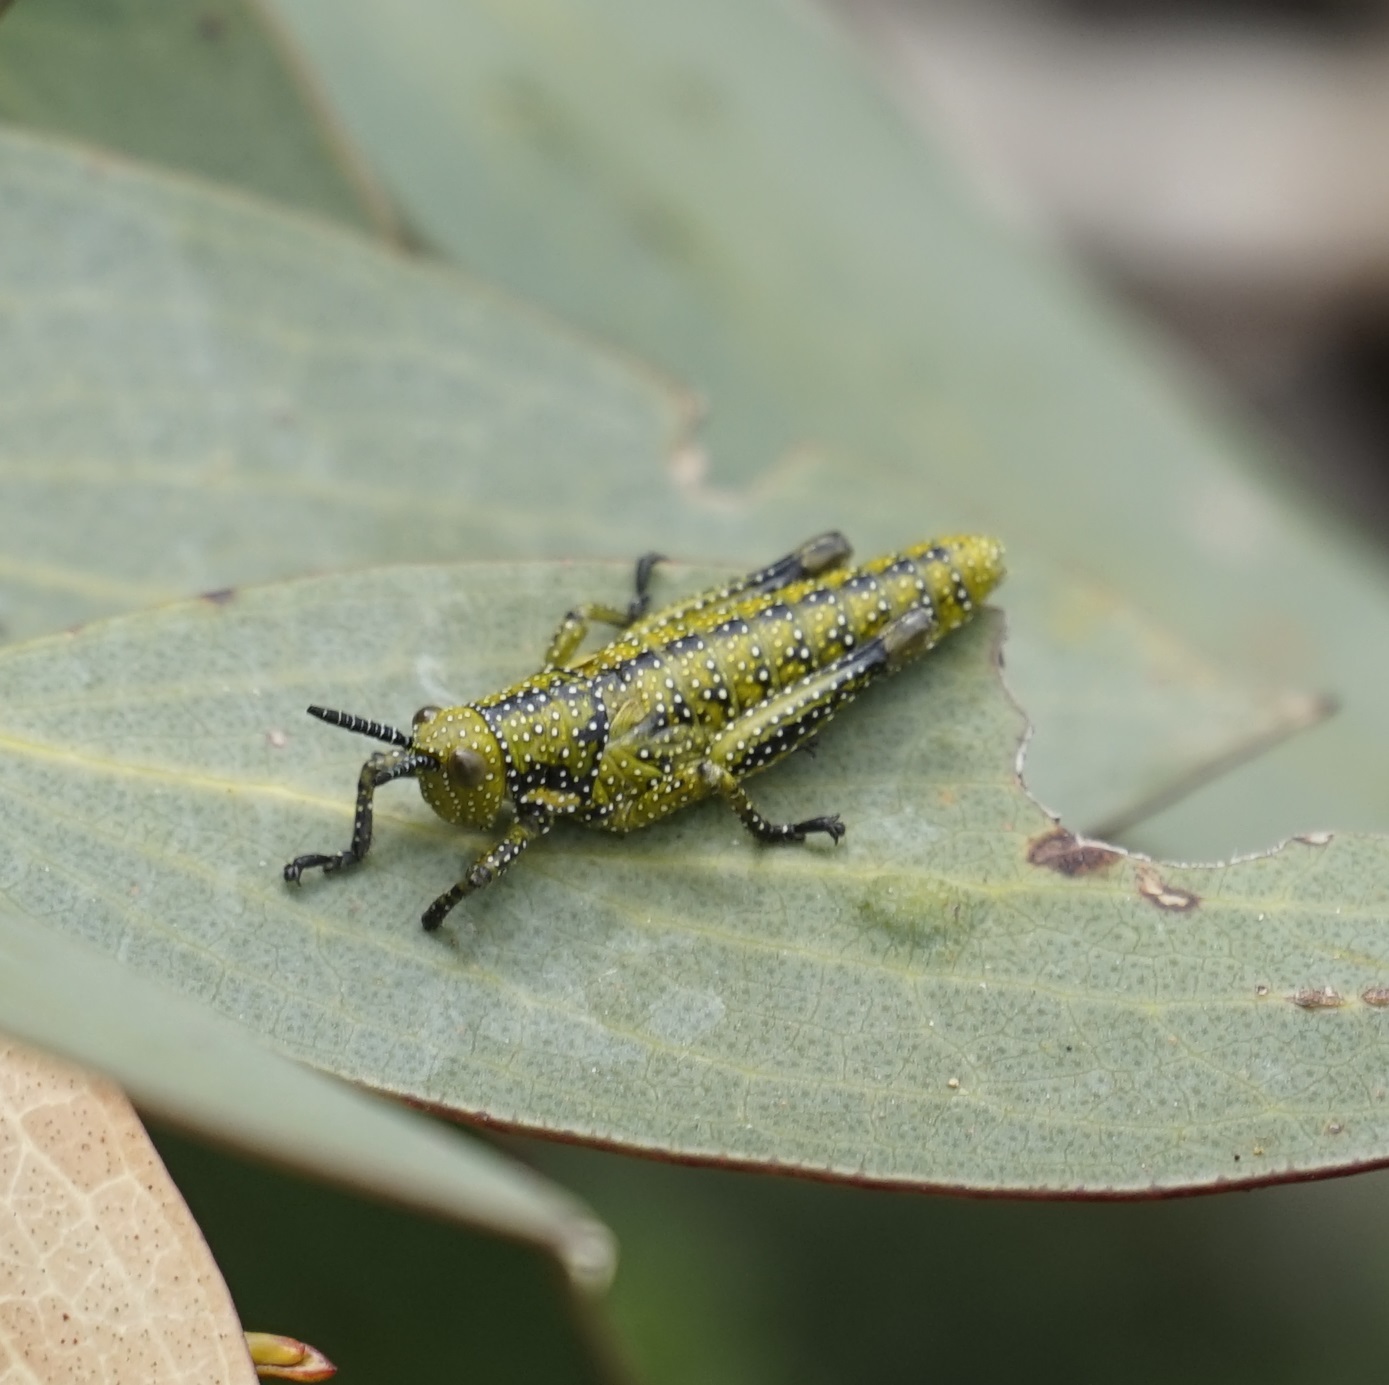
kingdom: Animalia
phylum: Arthropoda
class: Insecta
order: Orthoptera
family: Pyrgomorphidae
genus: Monistria
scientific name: Monistria concinna
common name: Southern pyrgomorph
